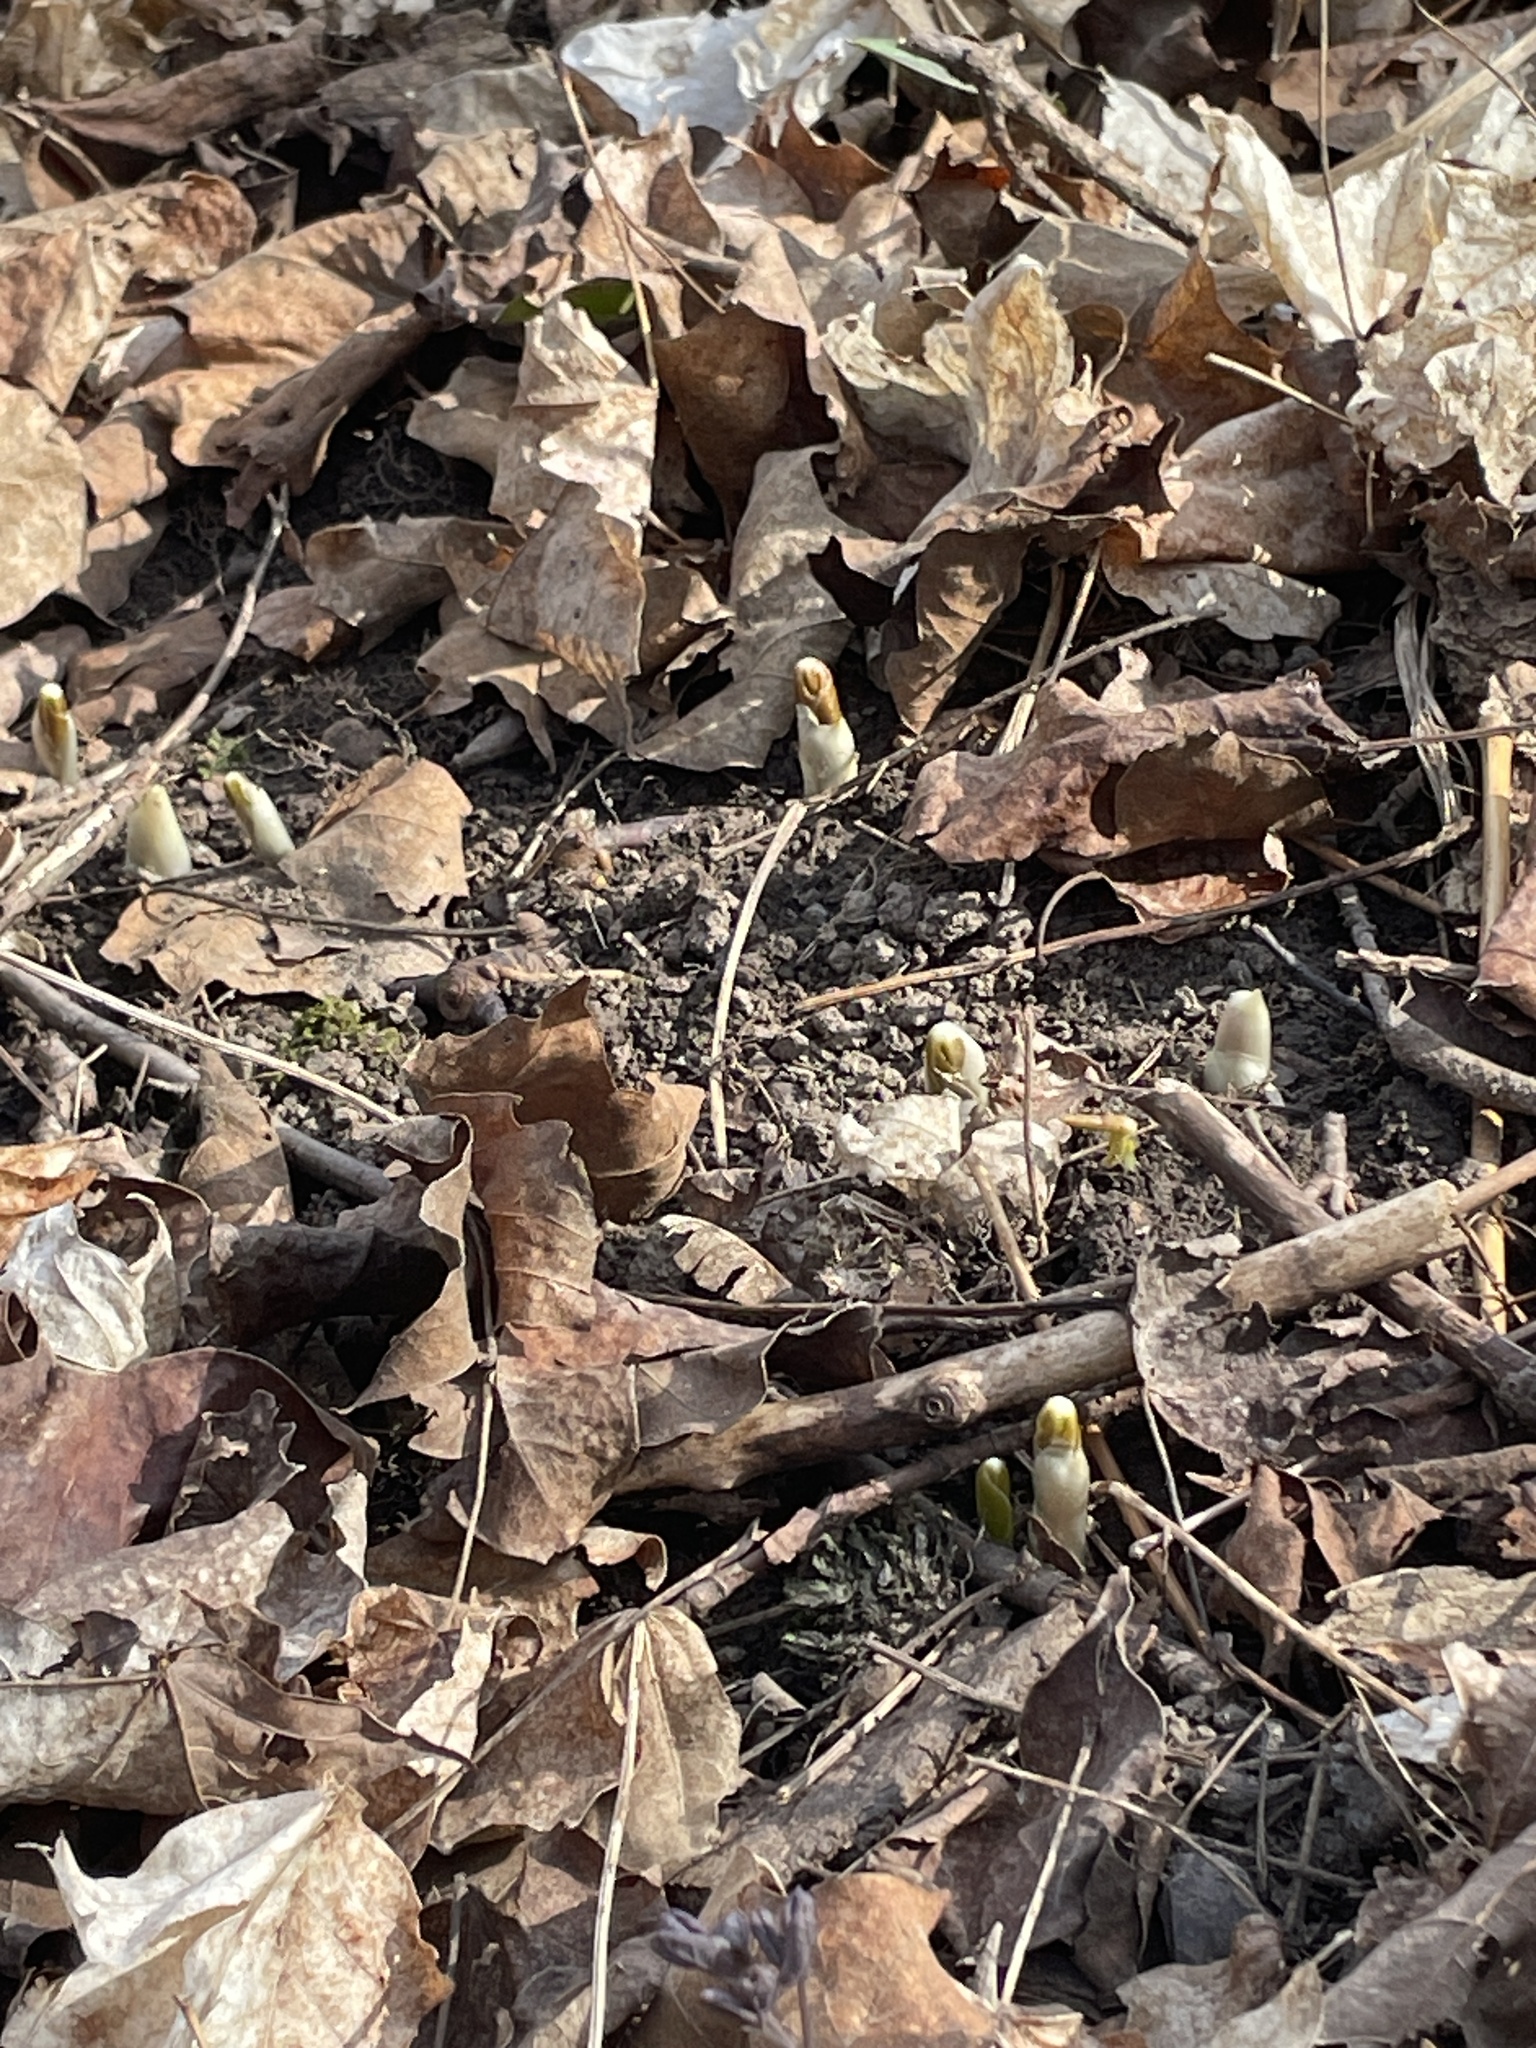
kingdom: Plantae
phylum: Tracheophyta
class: Magnoliopsida
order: Ranunculales
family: Berberidaceae
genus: Podophyllum
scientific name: Podophyllum peltatum
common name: Wild mandrake
